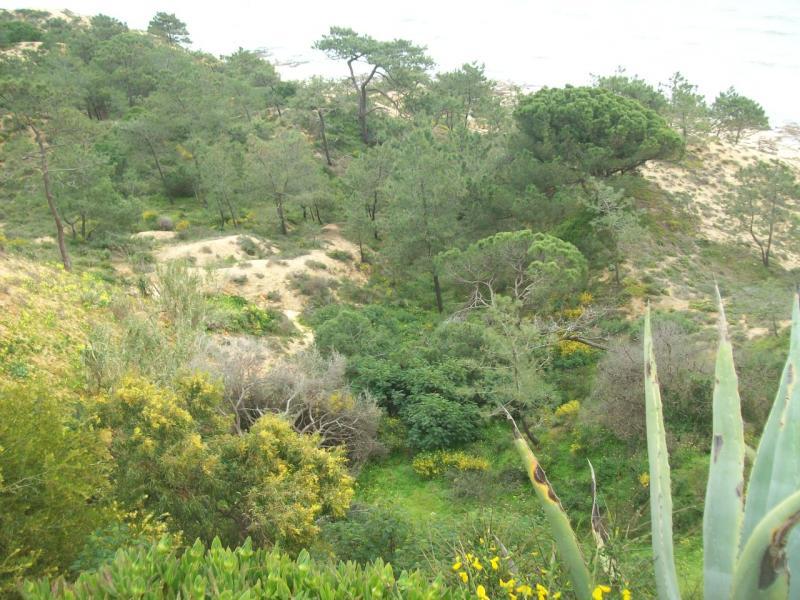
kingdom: Plantae
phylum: Tracheophyta
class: Pinopsida
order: Pinales
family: Pinaceae
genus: Pinus
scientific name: Pinus pinea
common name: Italian stone pine
